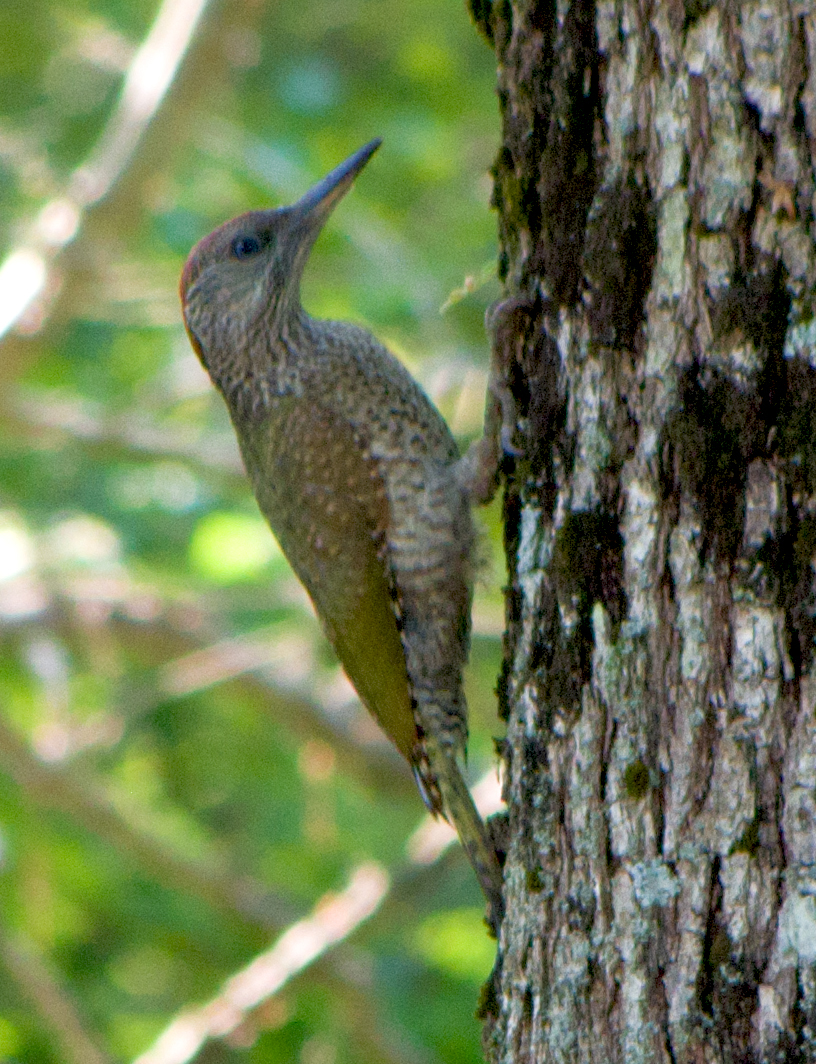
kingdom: Animalia
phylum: Chordata
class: Aves
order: Piciformes
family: Picidae
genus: Picus
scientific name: Picus canus
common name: Grey-headed woodpecker
